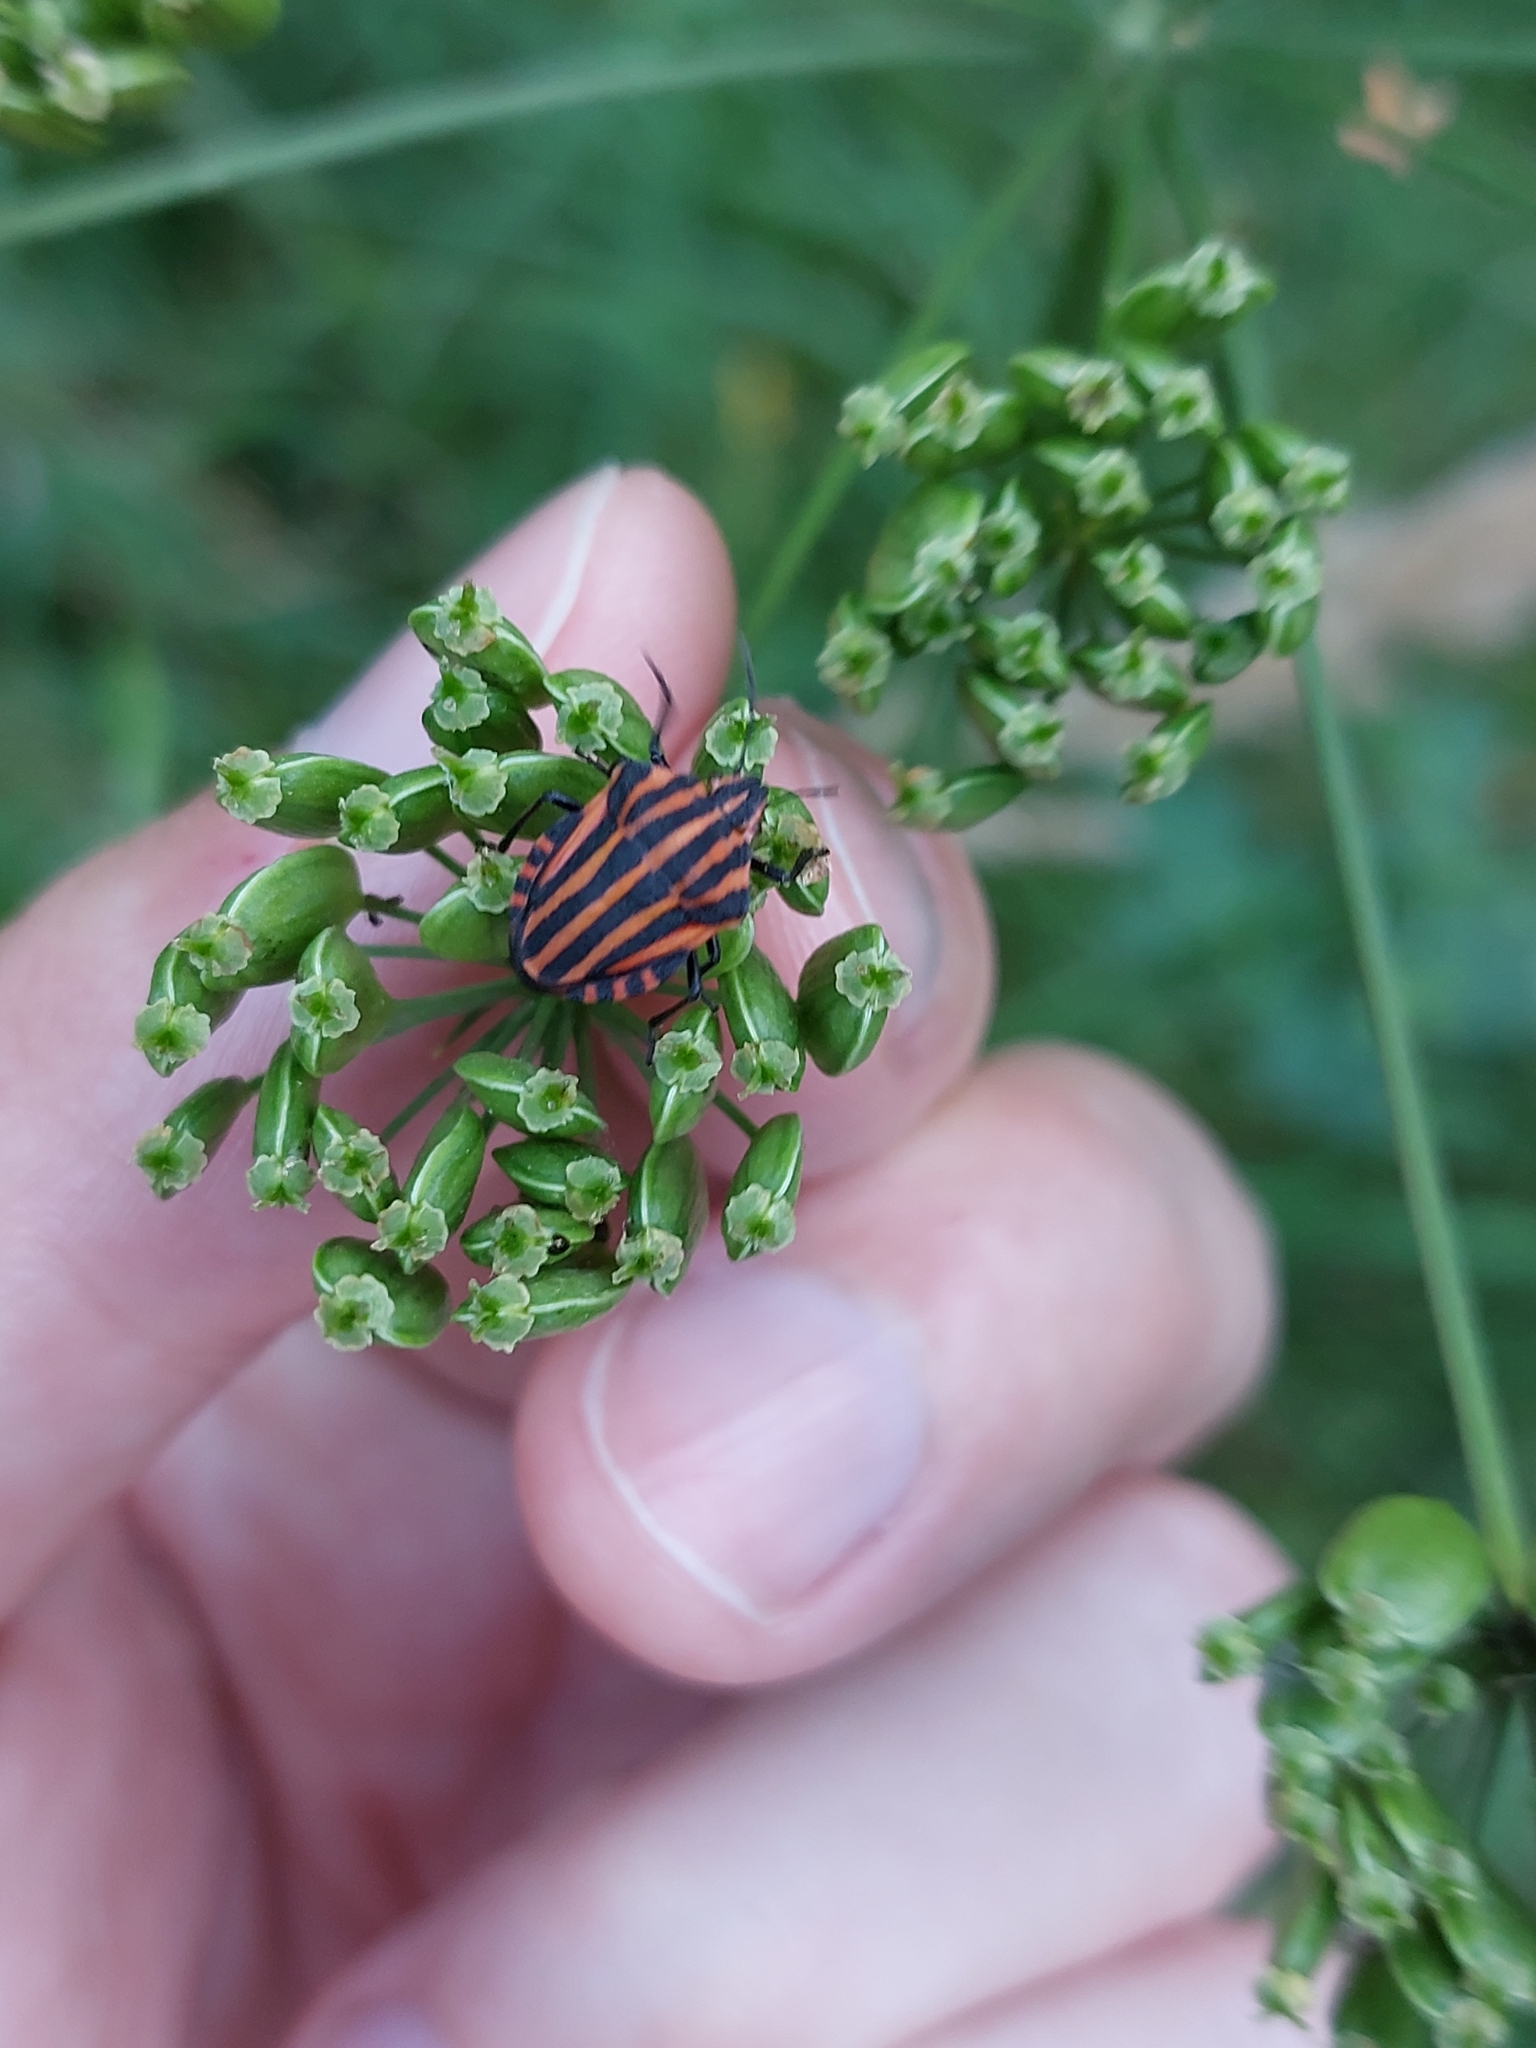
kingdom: Animalia
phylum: Arthropoda
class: Insecta
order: Hemiptera
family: Pentatomidae
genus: Graphosoma
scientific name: Graphosoma italicum
